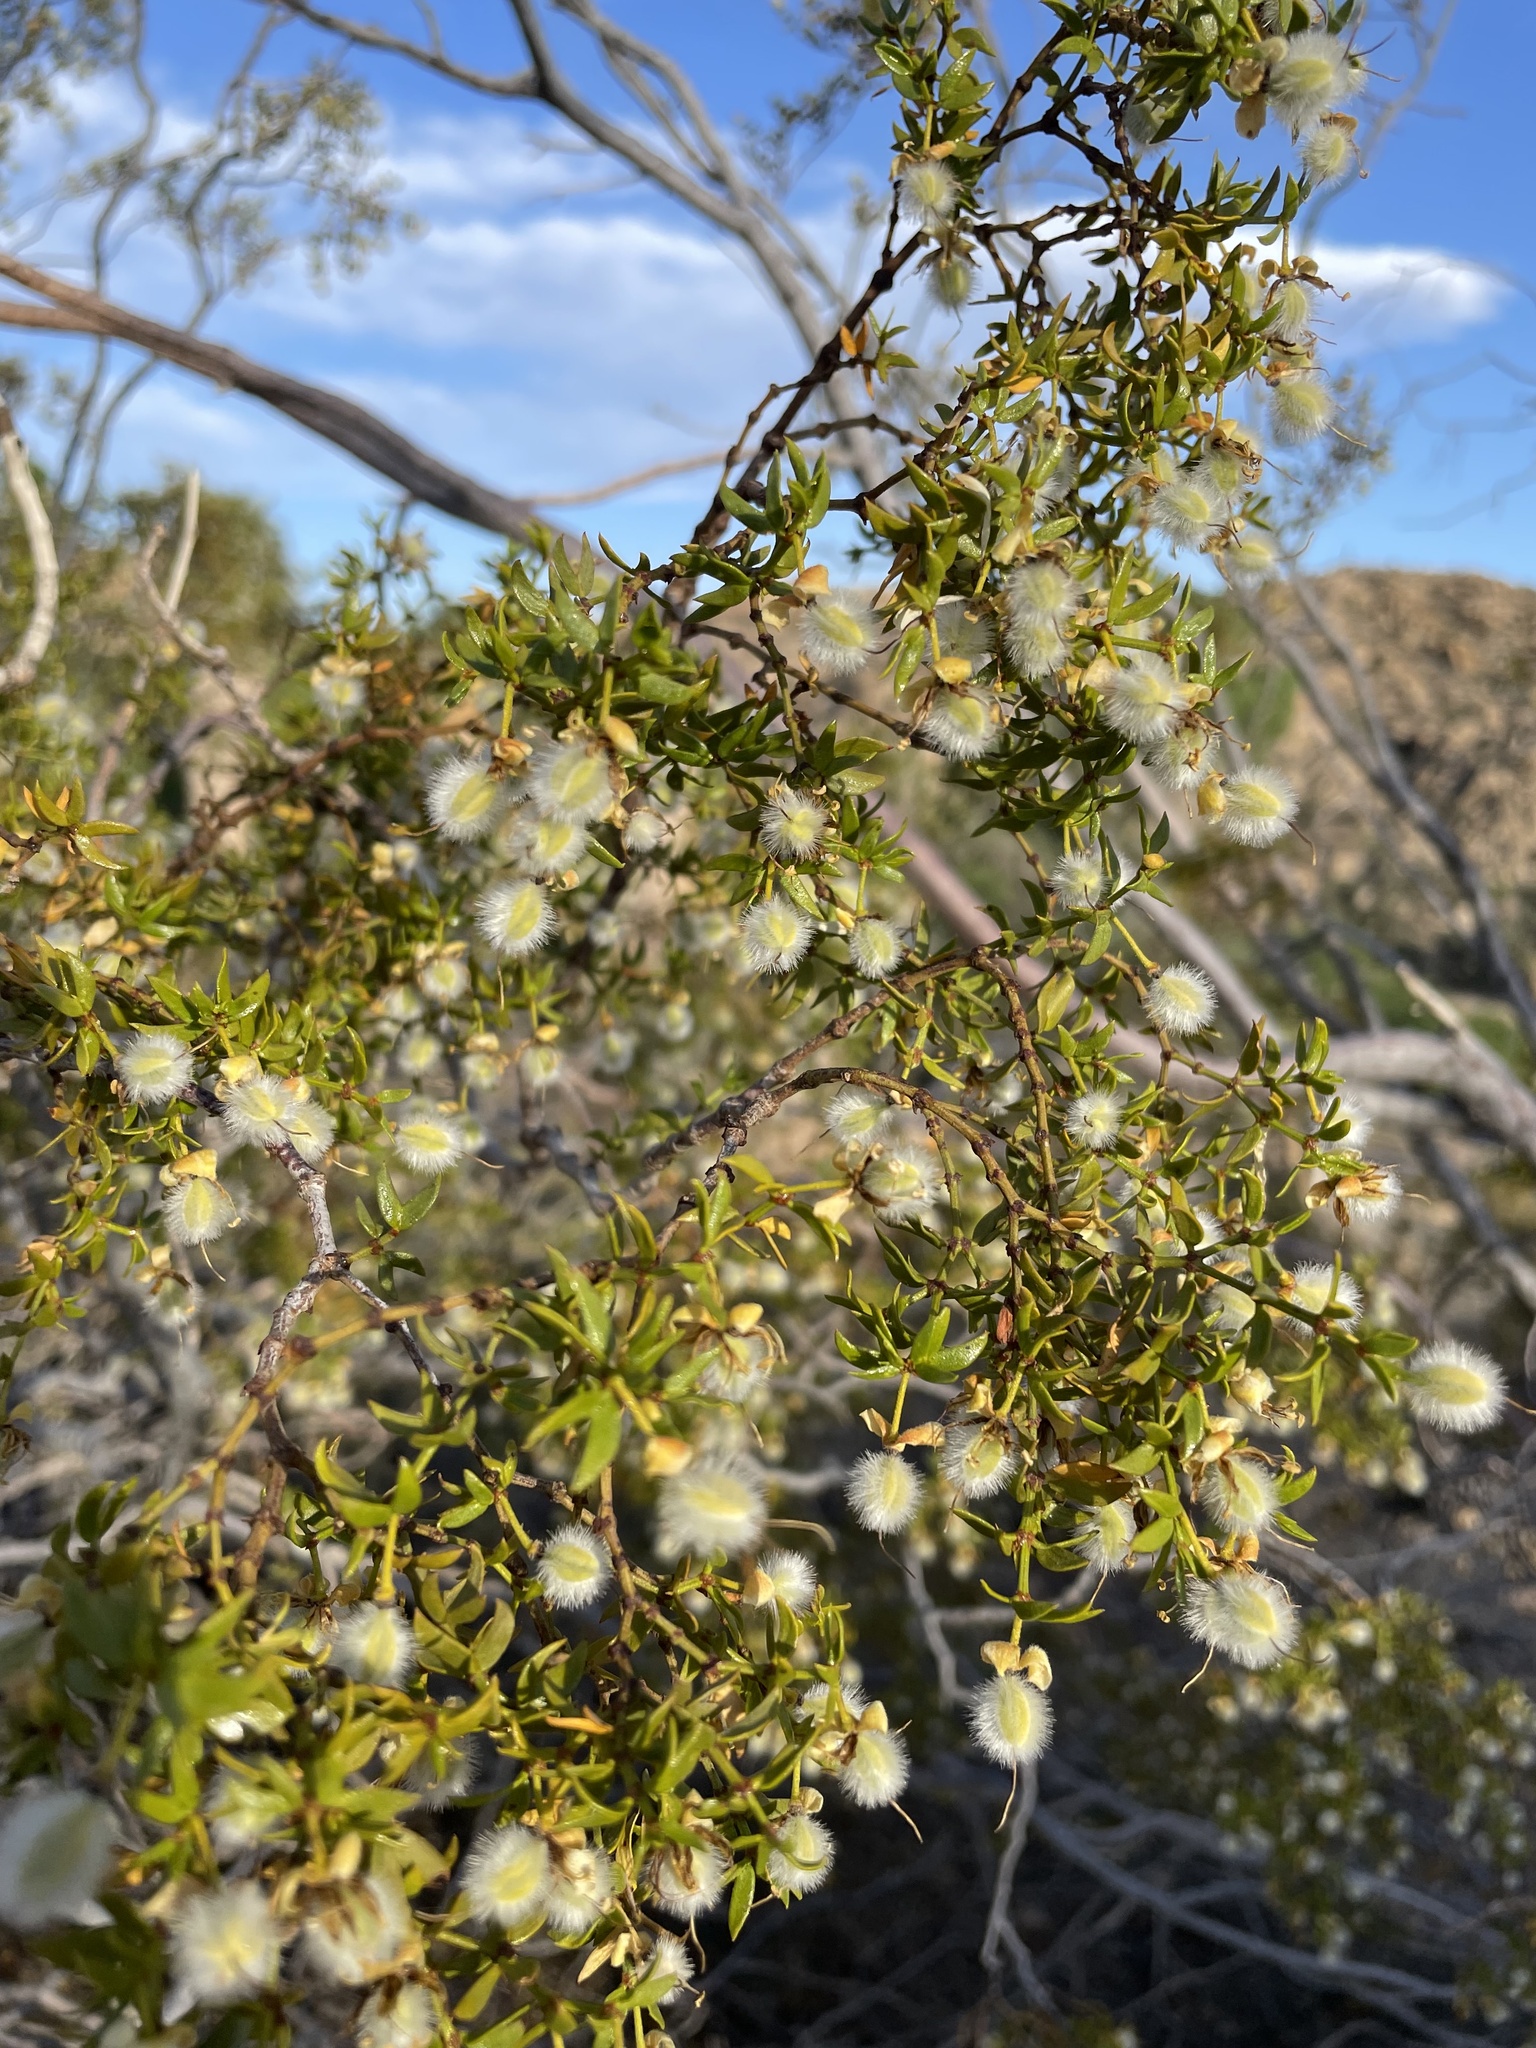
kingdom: Plantae
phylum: Tracheophyta
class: Magnoliopsida
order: Zygophyllales
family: Zygophyllaceae
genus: Larrea
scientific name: Larrea tridentata
